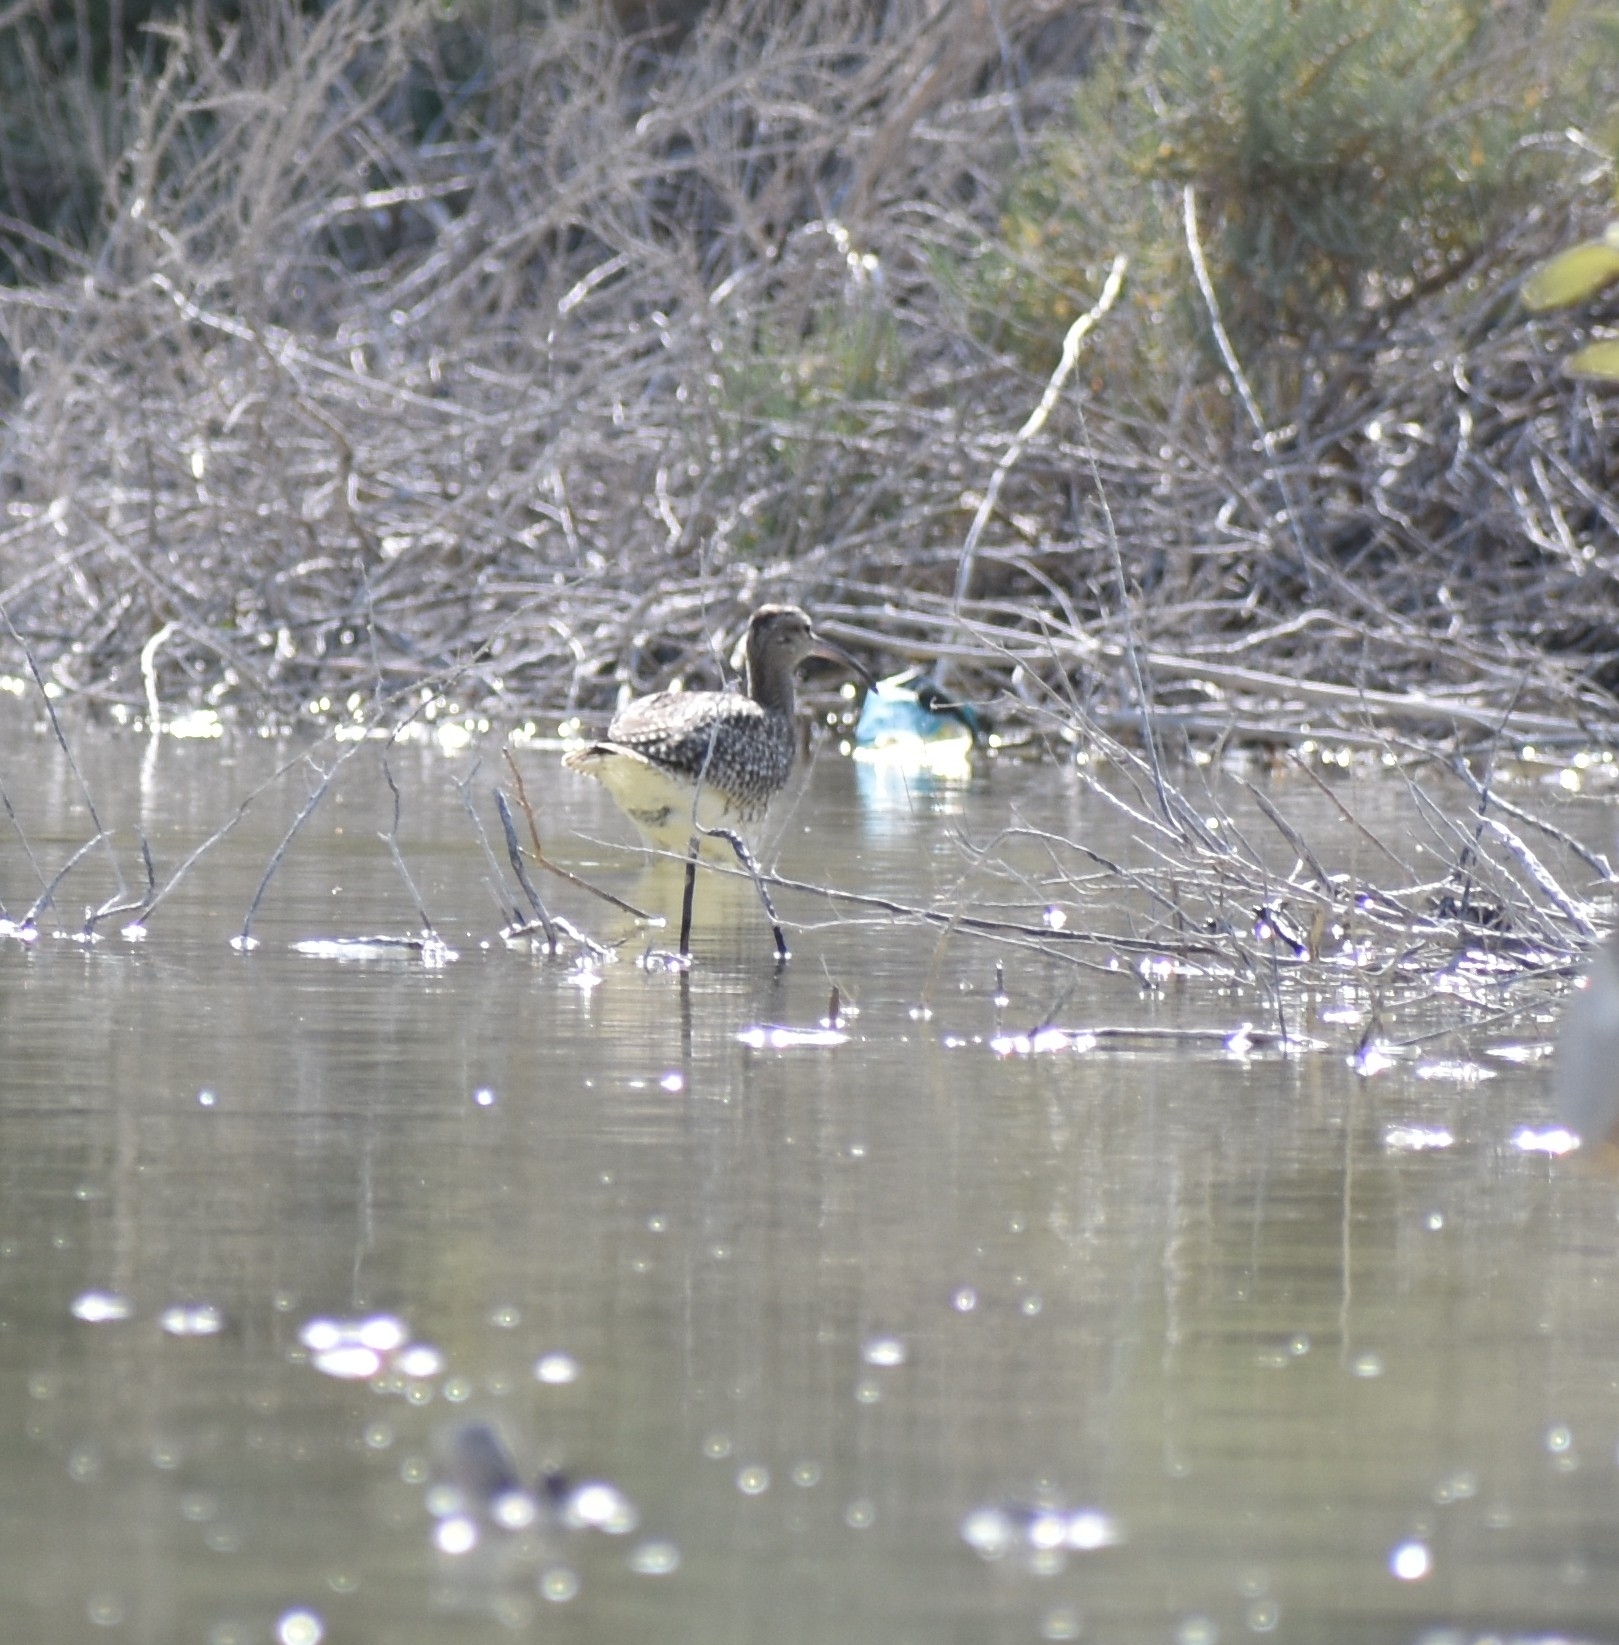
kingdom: Animalia
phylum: Chordata
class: Aves
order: Charadriiformes
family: Scolopacidae
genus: Numenius
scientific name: Numenius phaeopus
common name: Whimbrel
